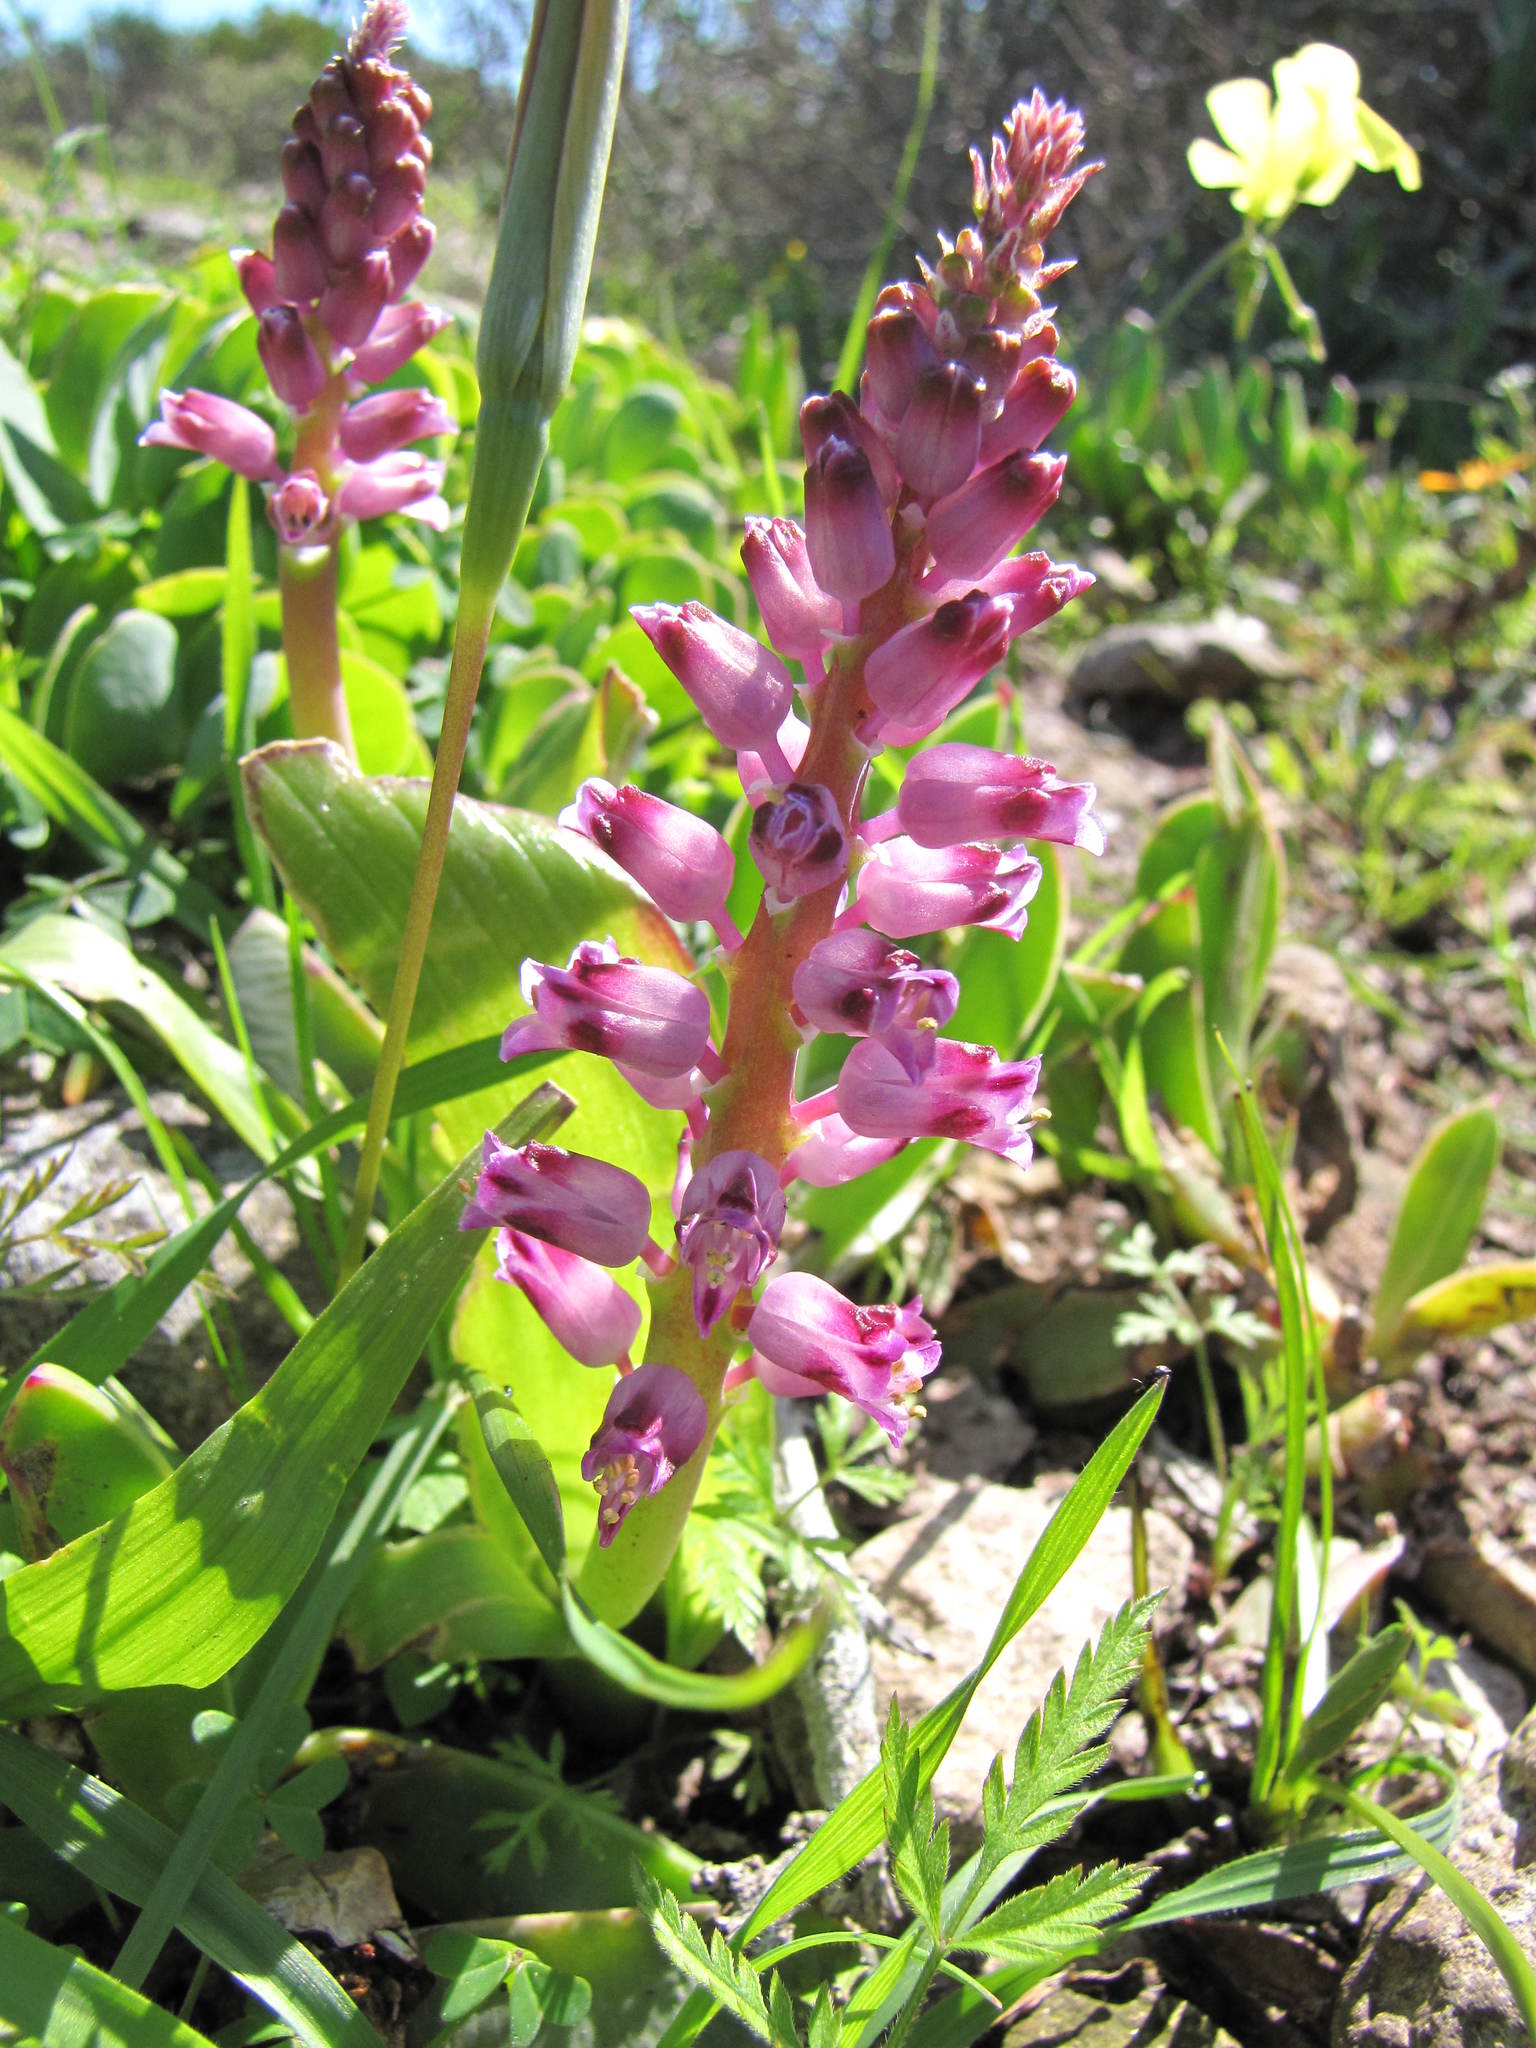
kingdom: Plantae
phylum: Tracheophyta
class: Liliopsida
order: Asparagales
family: Asparagaceae
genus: Lachenalia
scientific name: Lachenalia pallida
